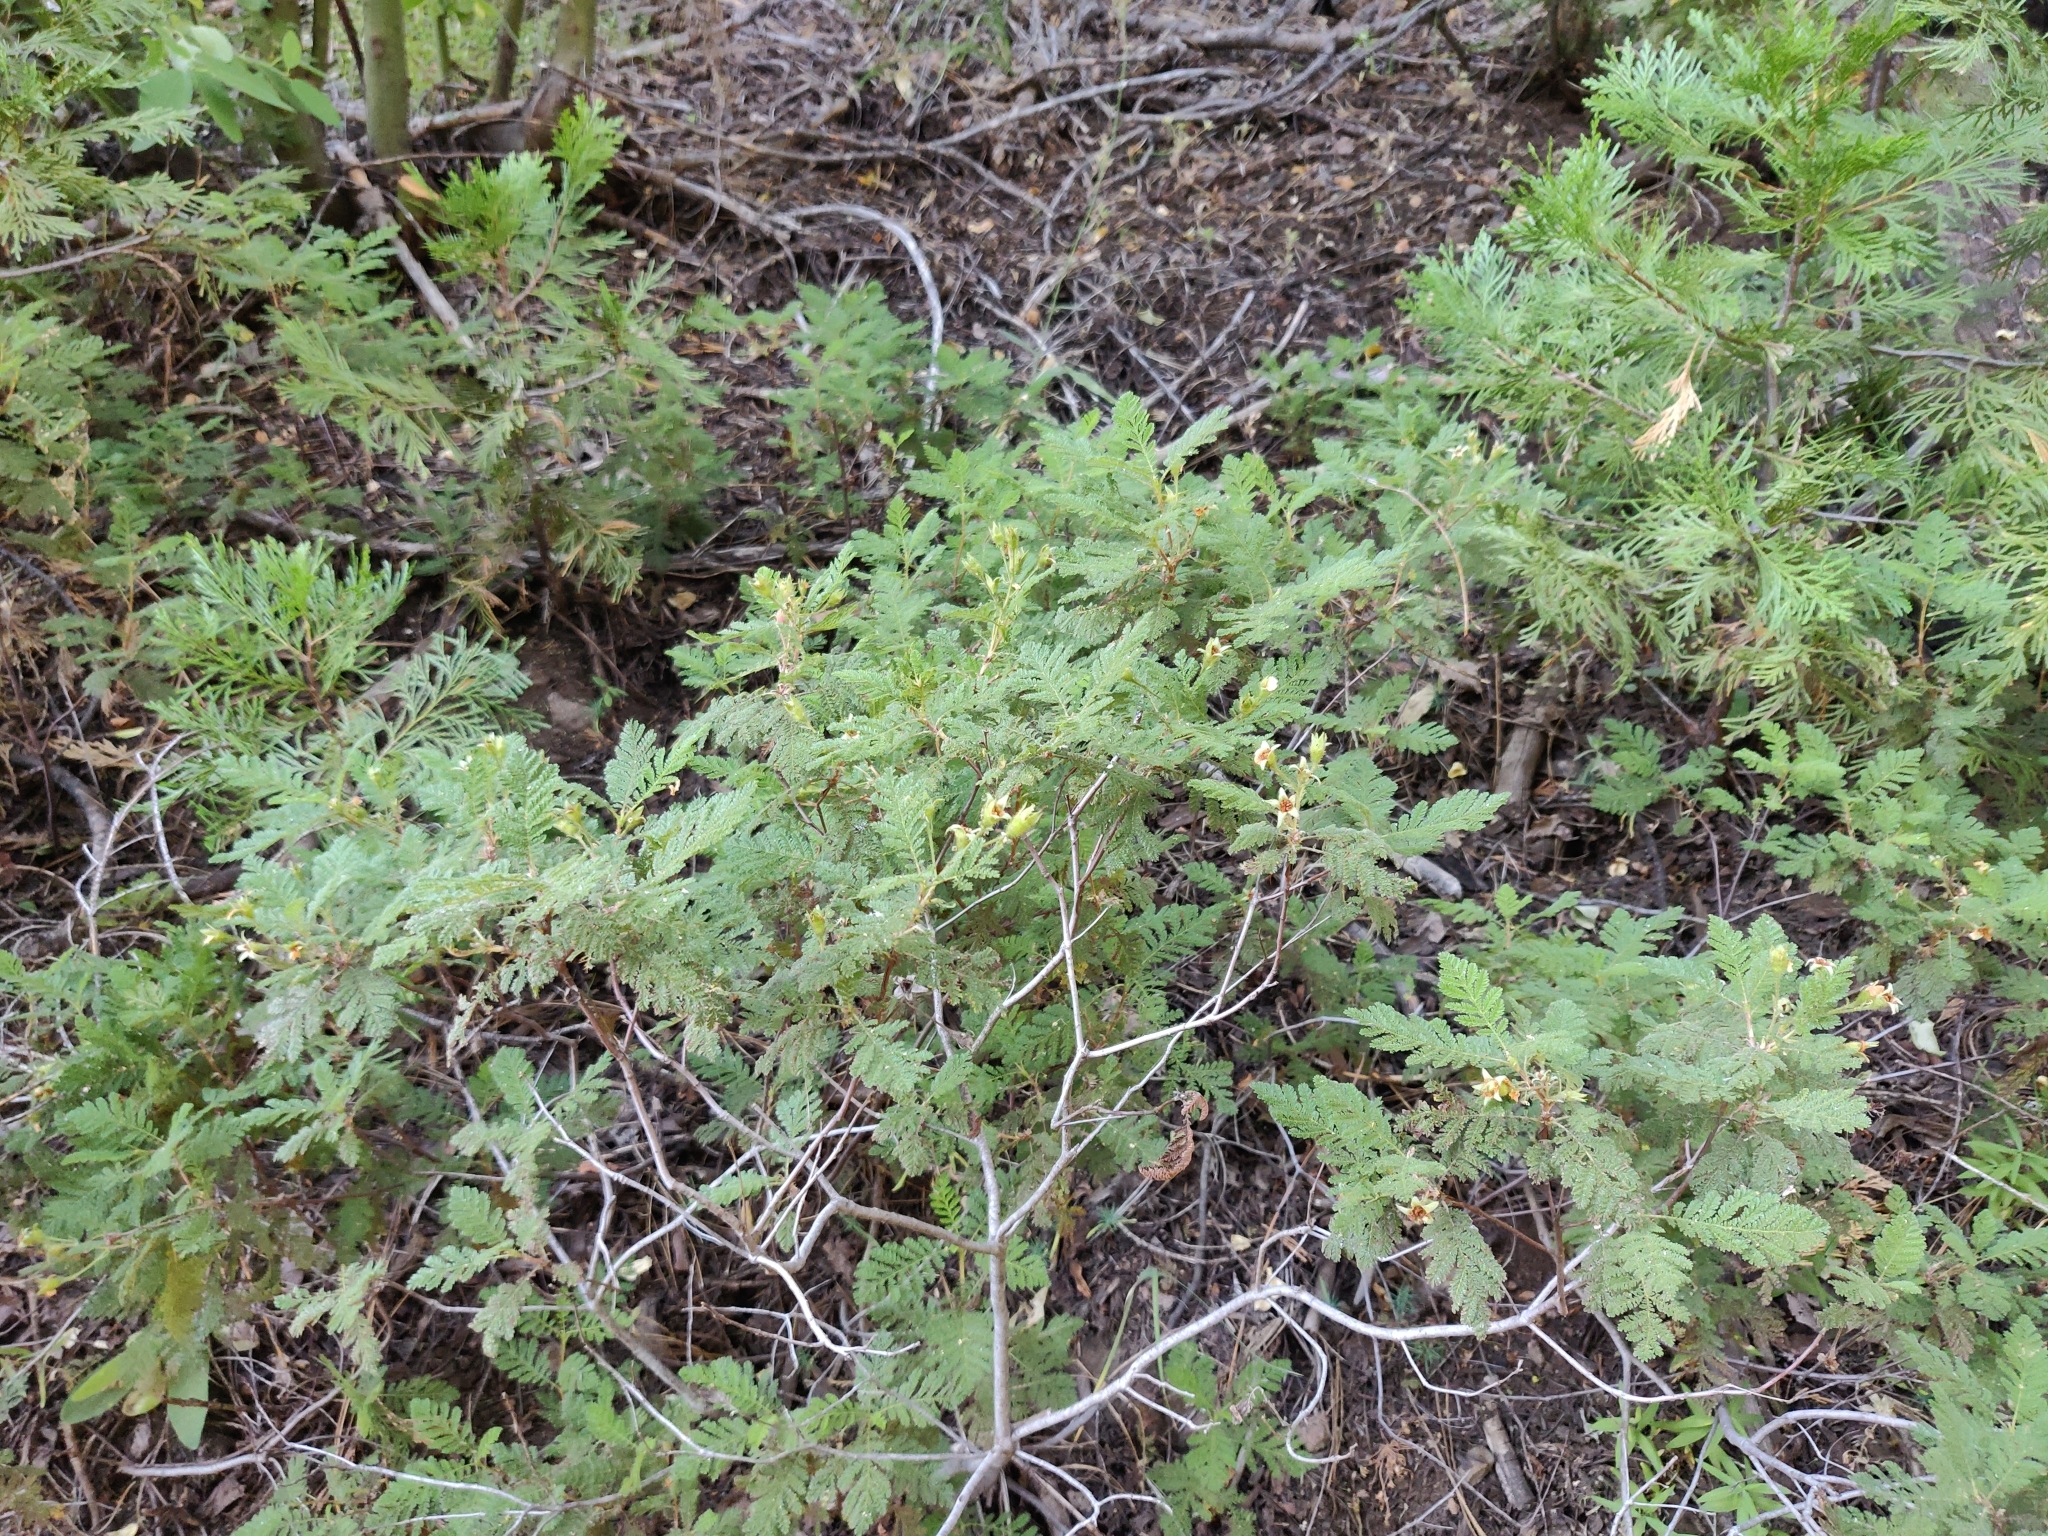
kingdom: Plantae
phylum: Tracheophyta
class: Magnoliopsida
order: Rosales
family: Rosaceae
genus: Chamaebatia
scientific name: Chamaebatia foliolosa
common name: Mountain misery
